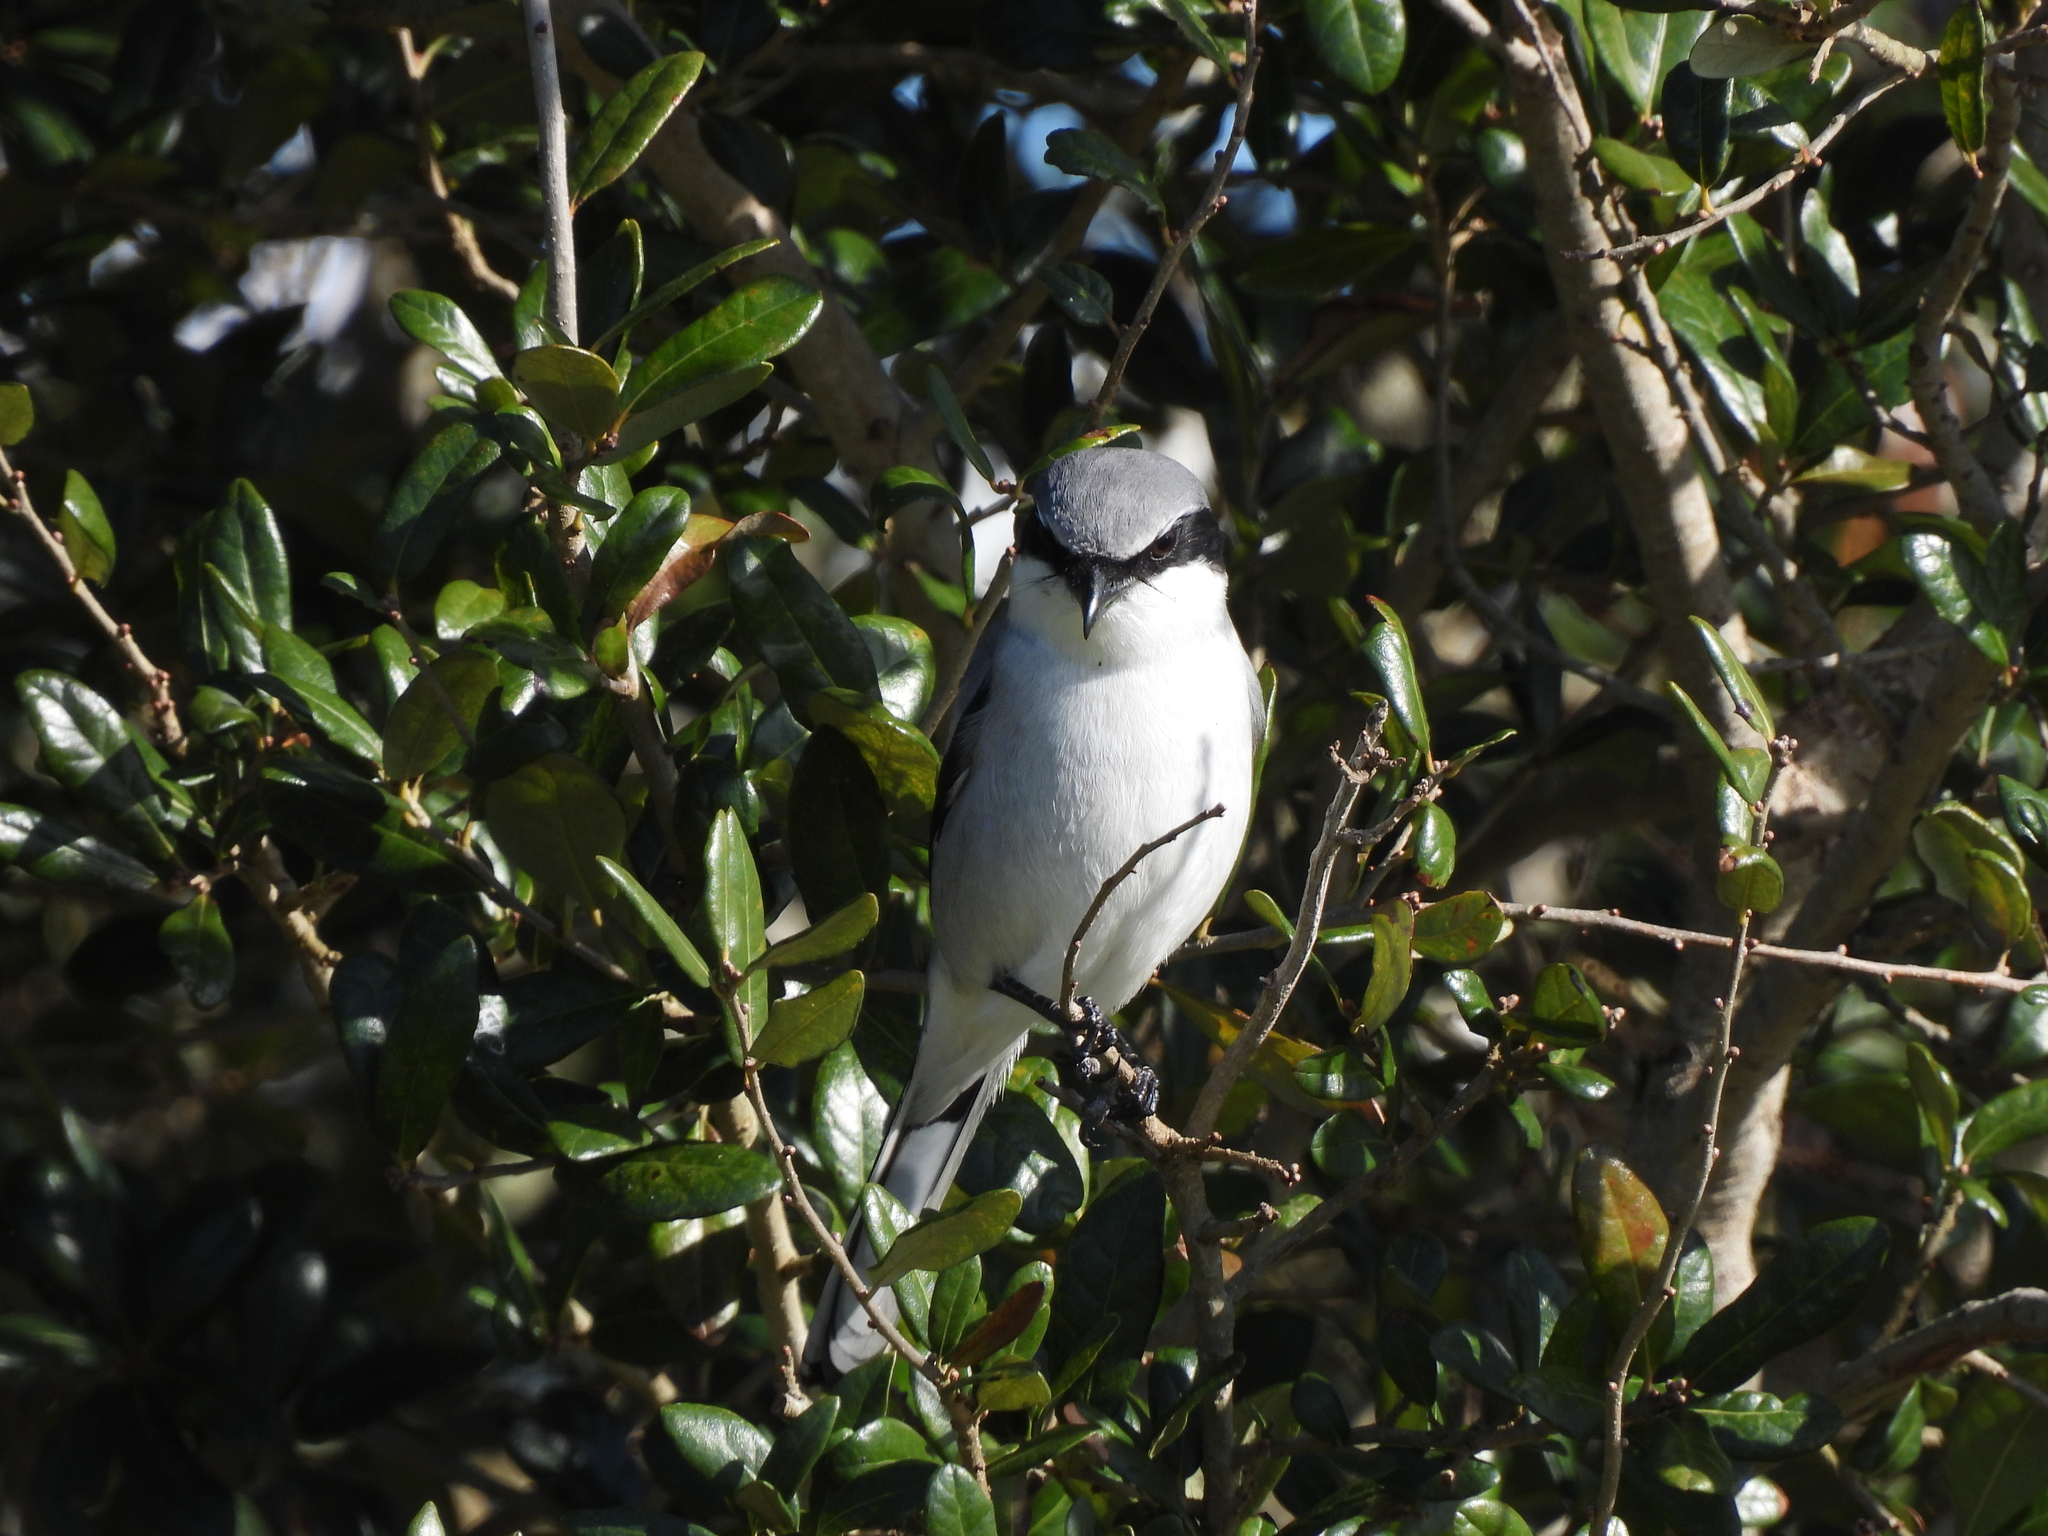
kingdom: Animalia
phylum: Chordata
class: Aves
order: Passeriformes
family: Laniidae
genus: Lanius
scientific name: Lanius ludovicianus
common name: Loggerhead shrike
